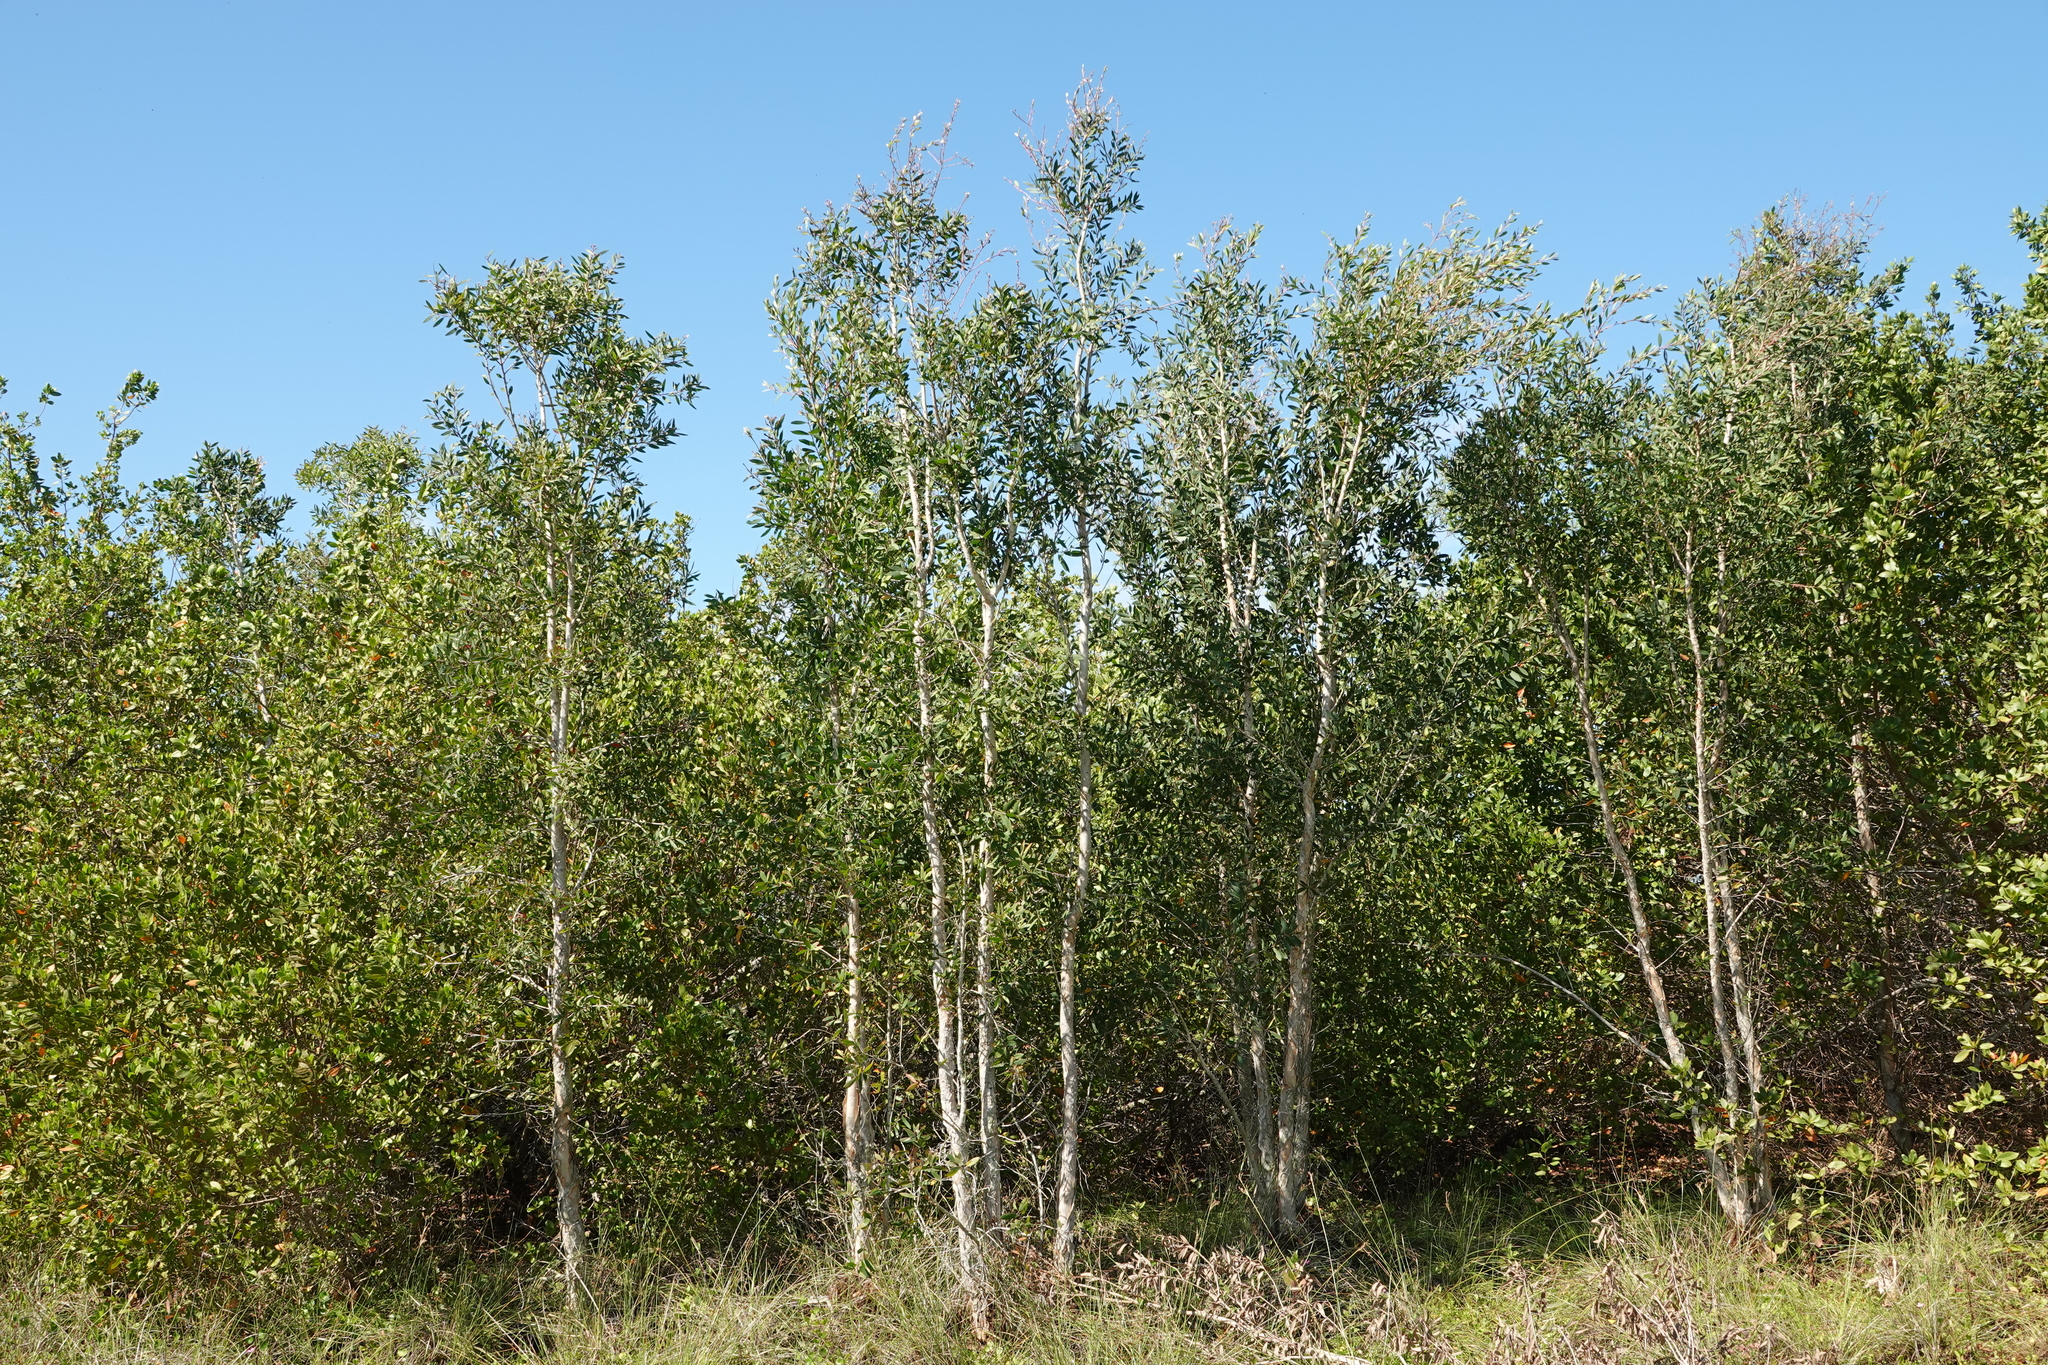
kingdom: Plantae
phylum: Tracheophyta
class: Magnoliopsida
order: Myrtales
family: Myrtaceae
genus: Melaleuca
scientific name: Melaleuca quinquenervia
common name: Punktree
